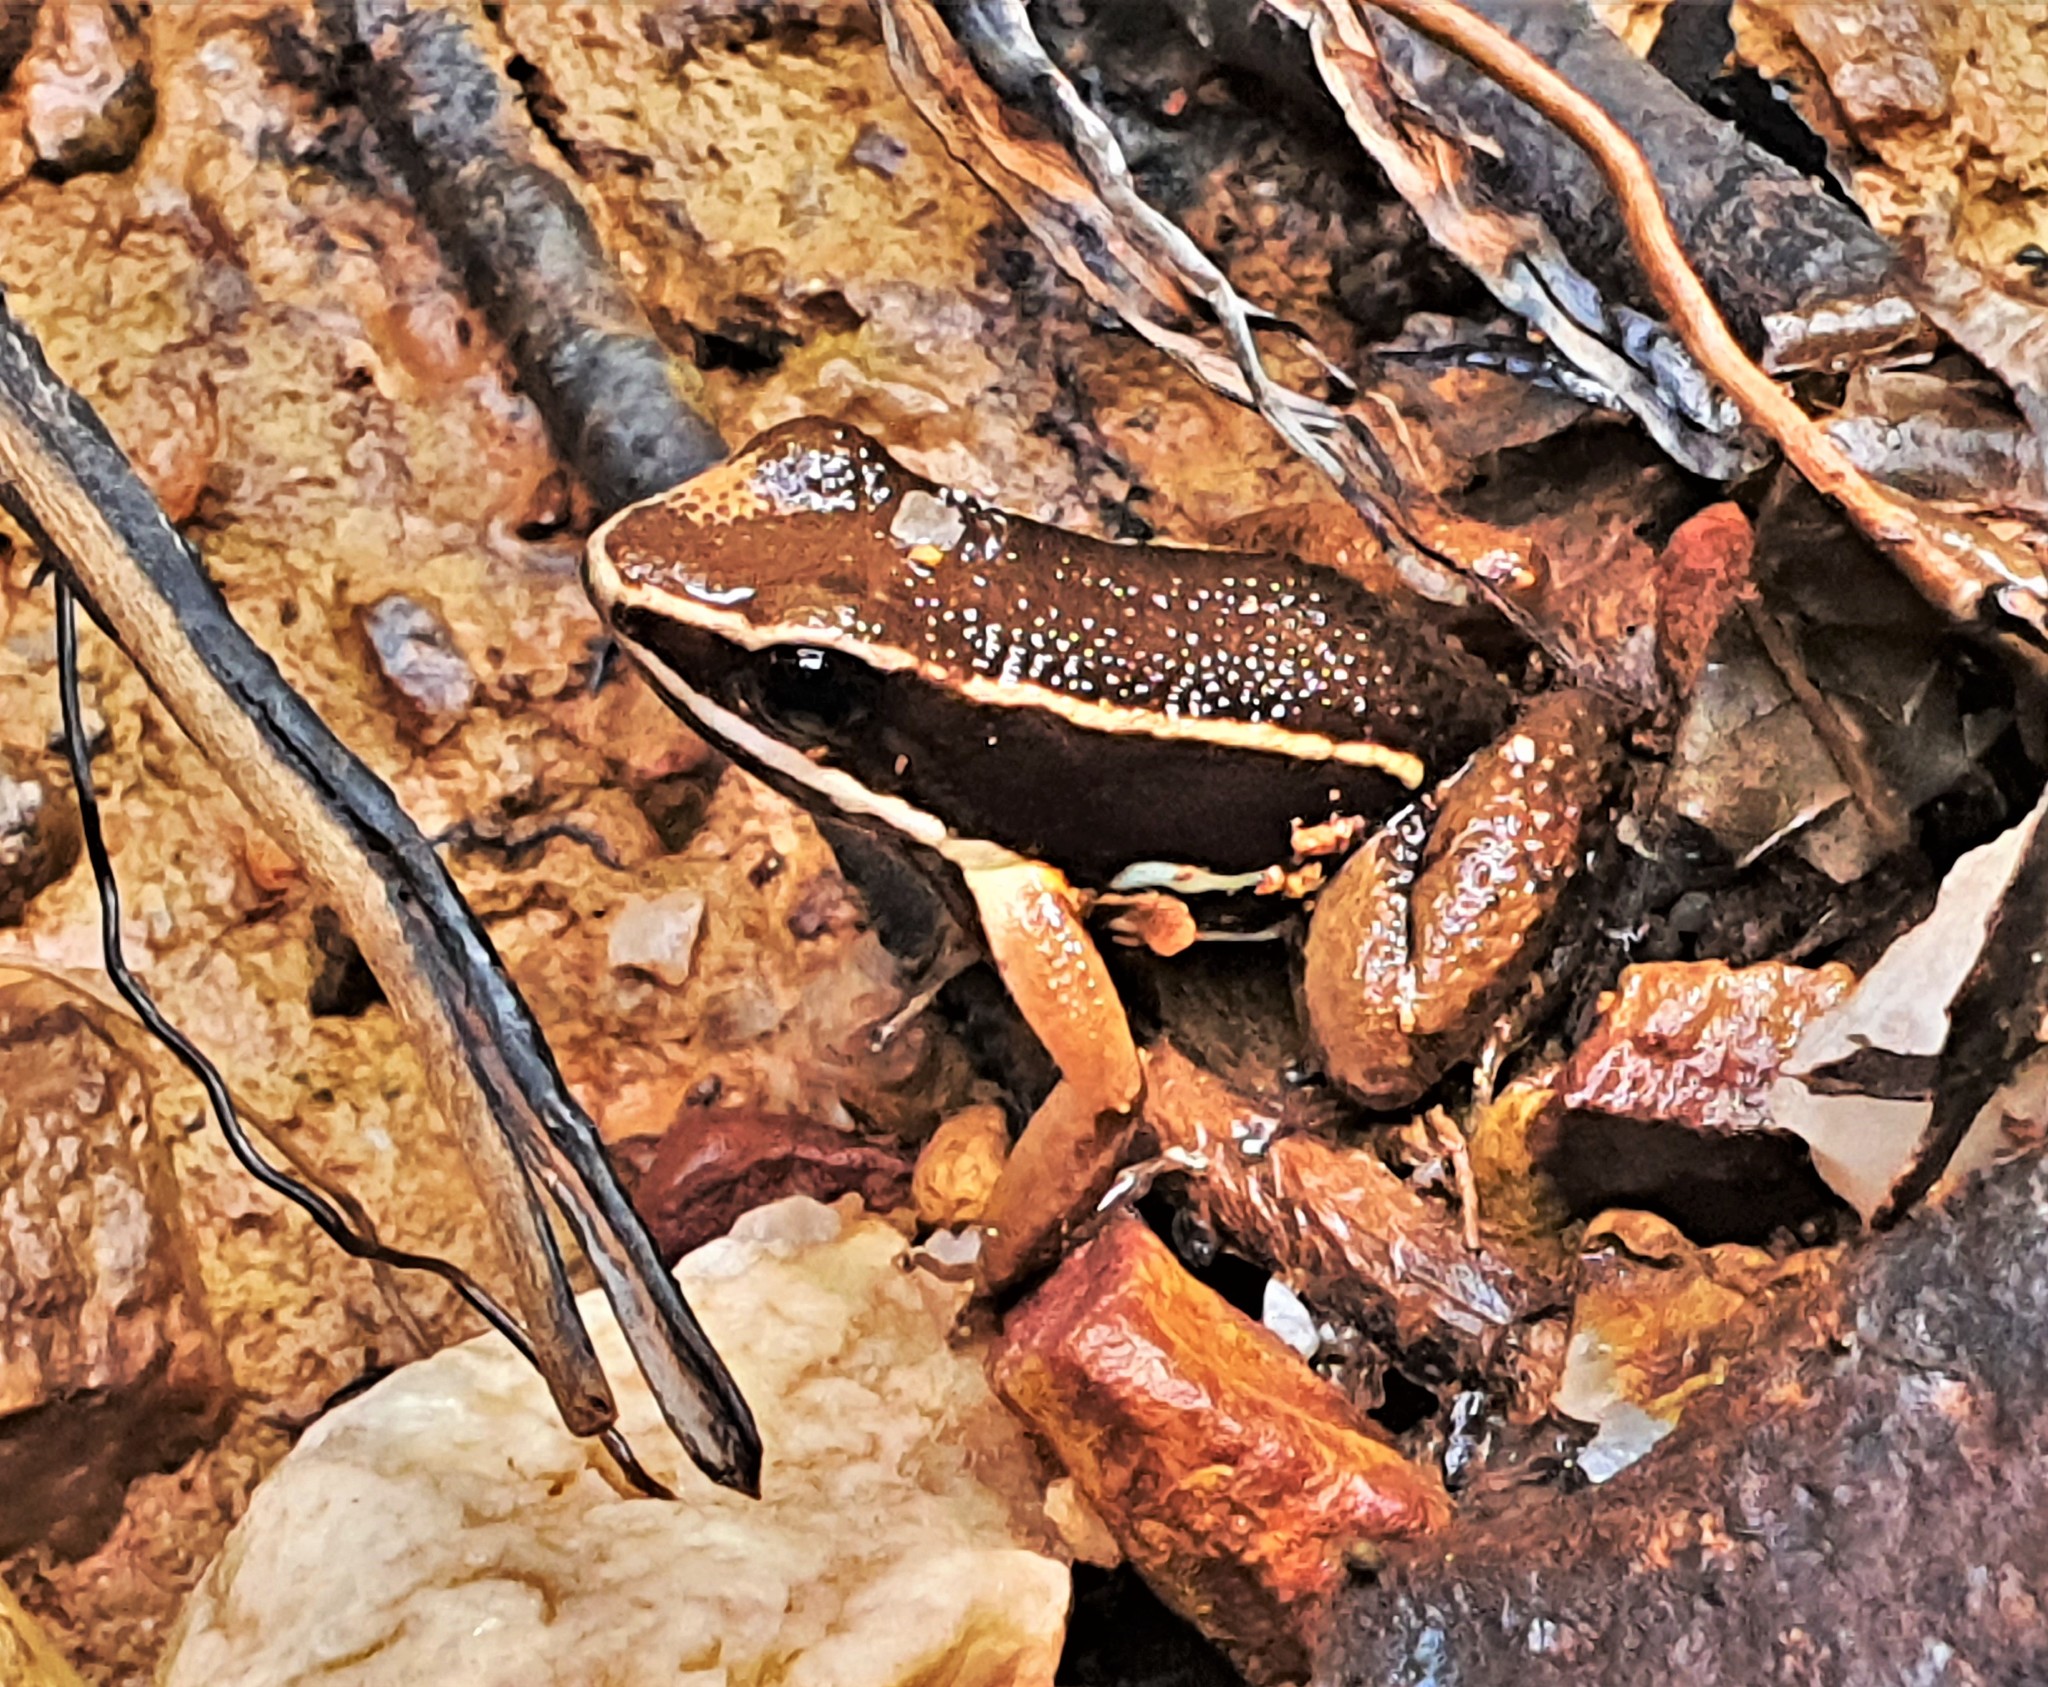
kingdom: Animalia
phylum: Chordata
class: Amphibia
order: Anura
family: Aromobatidae
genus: Allobates
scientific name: Allobates femoralis
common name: Brilliant-thighed poison frog
